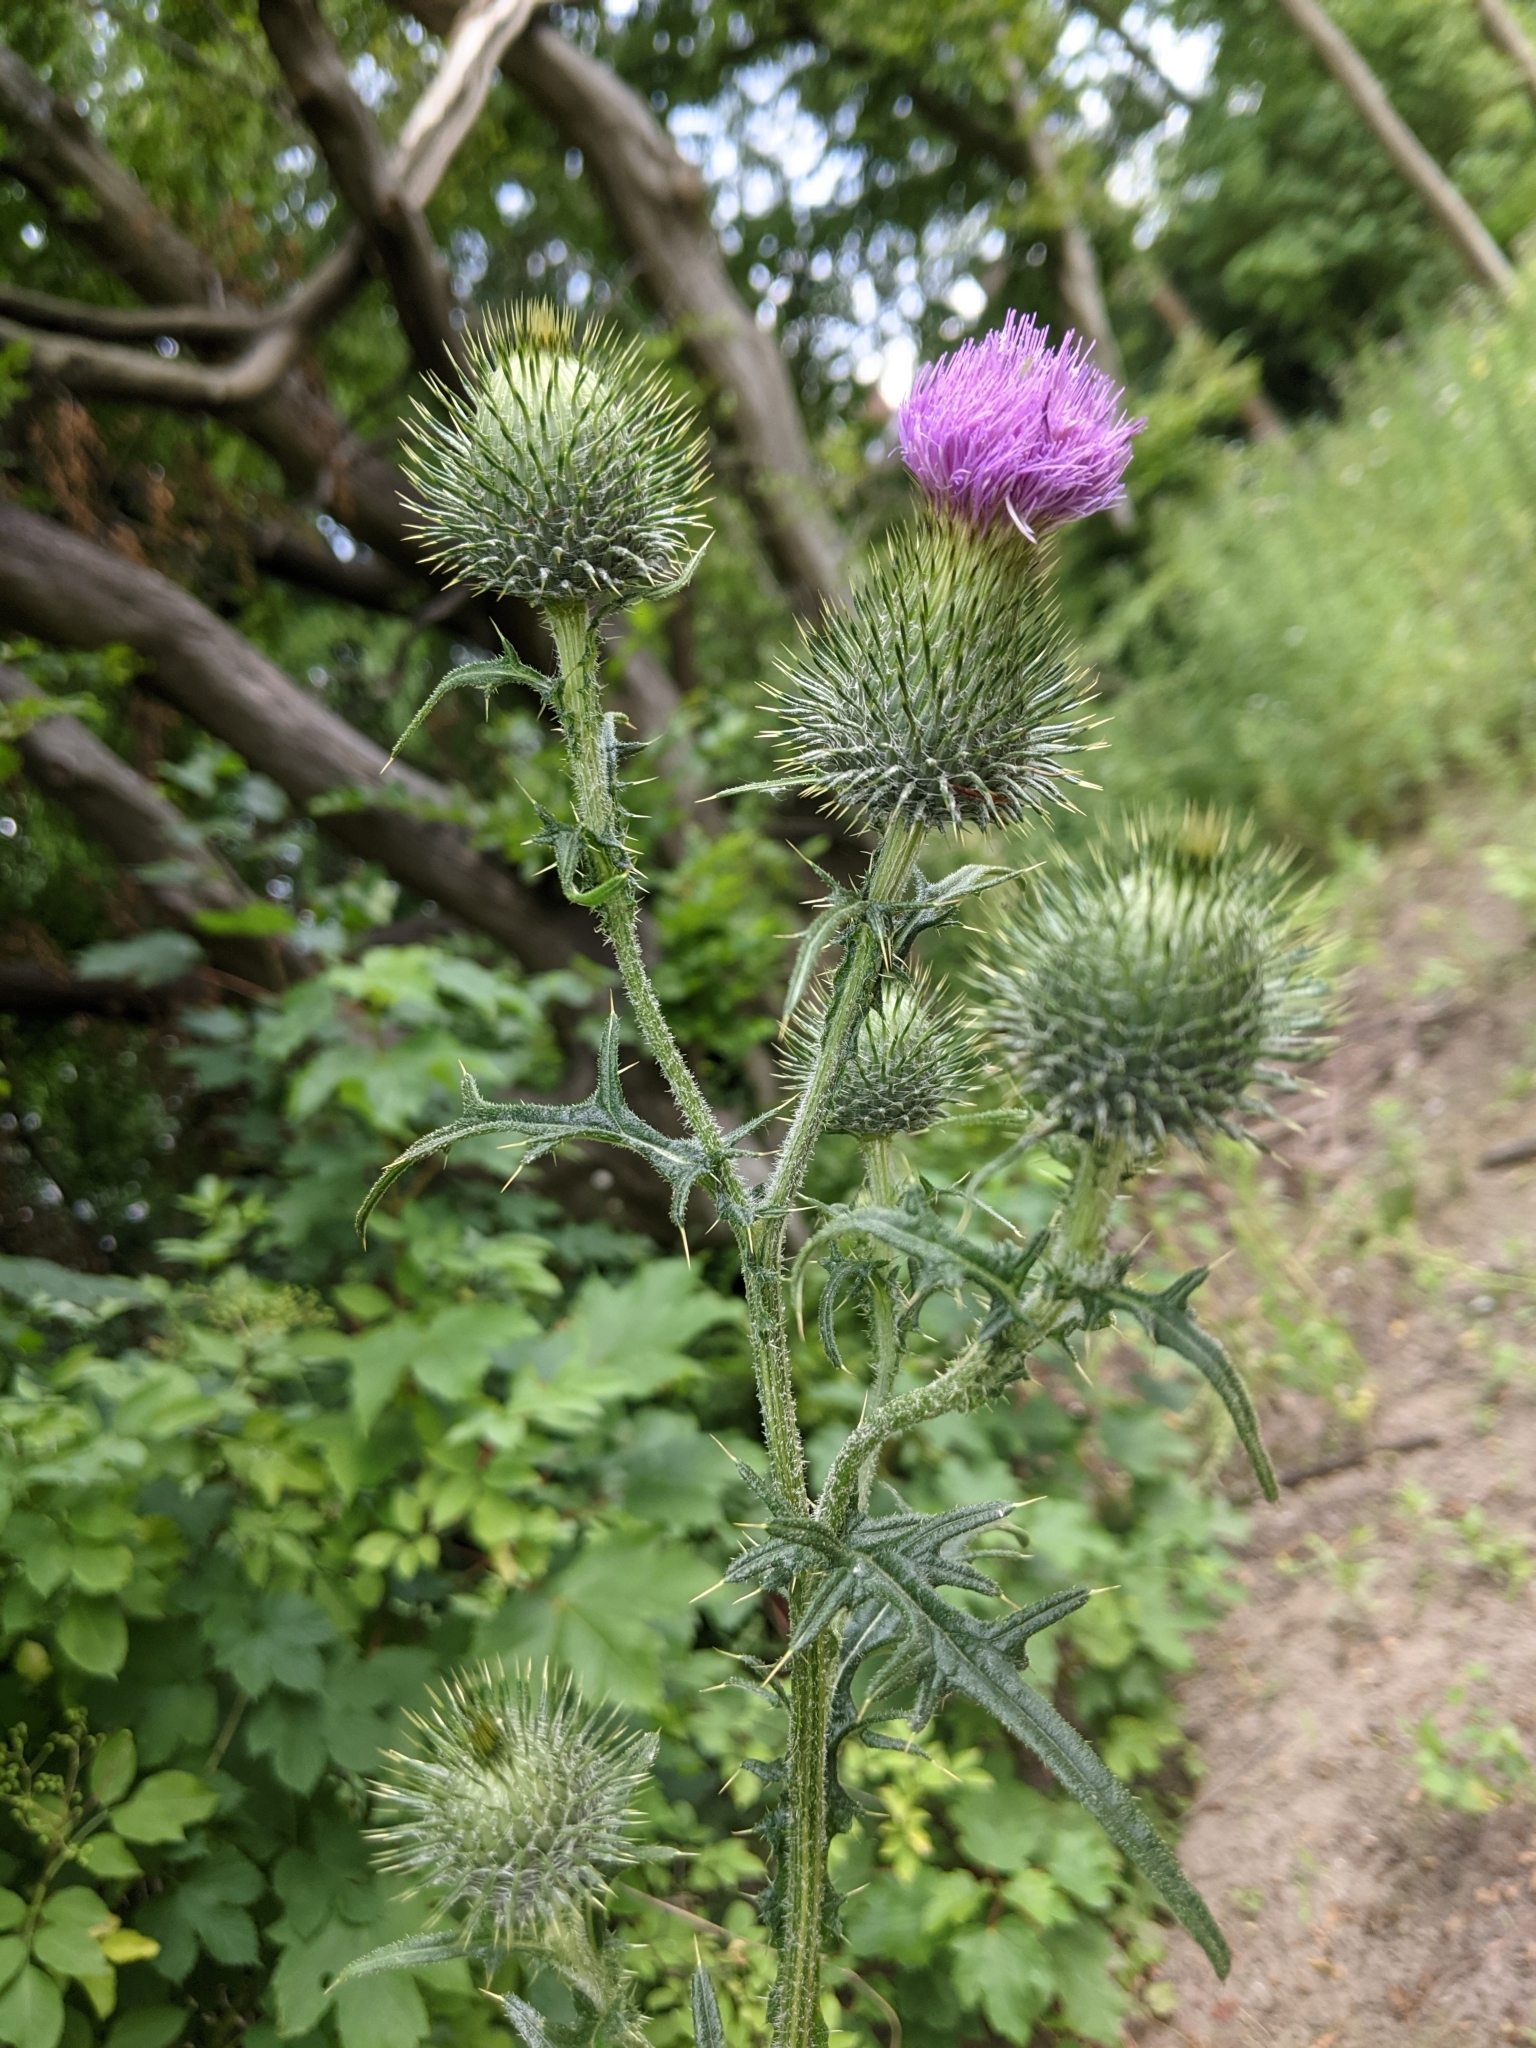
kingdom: Plantae
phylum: Tracheophyta
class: Magnoliopsida
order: Asterales
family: Asteraceae
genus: Cirsium
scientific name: Cirsium vulgare
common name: Bull thistle
